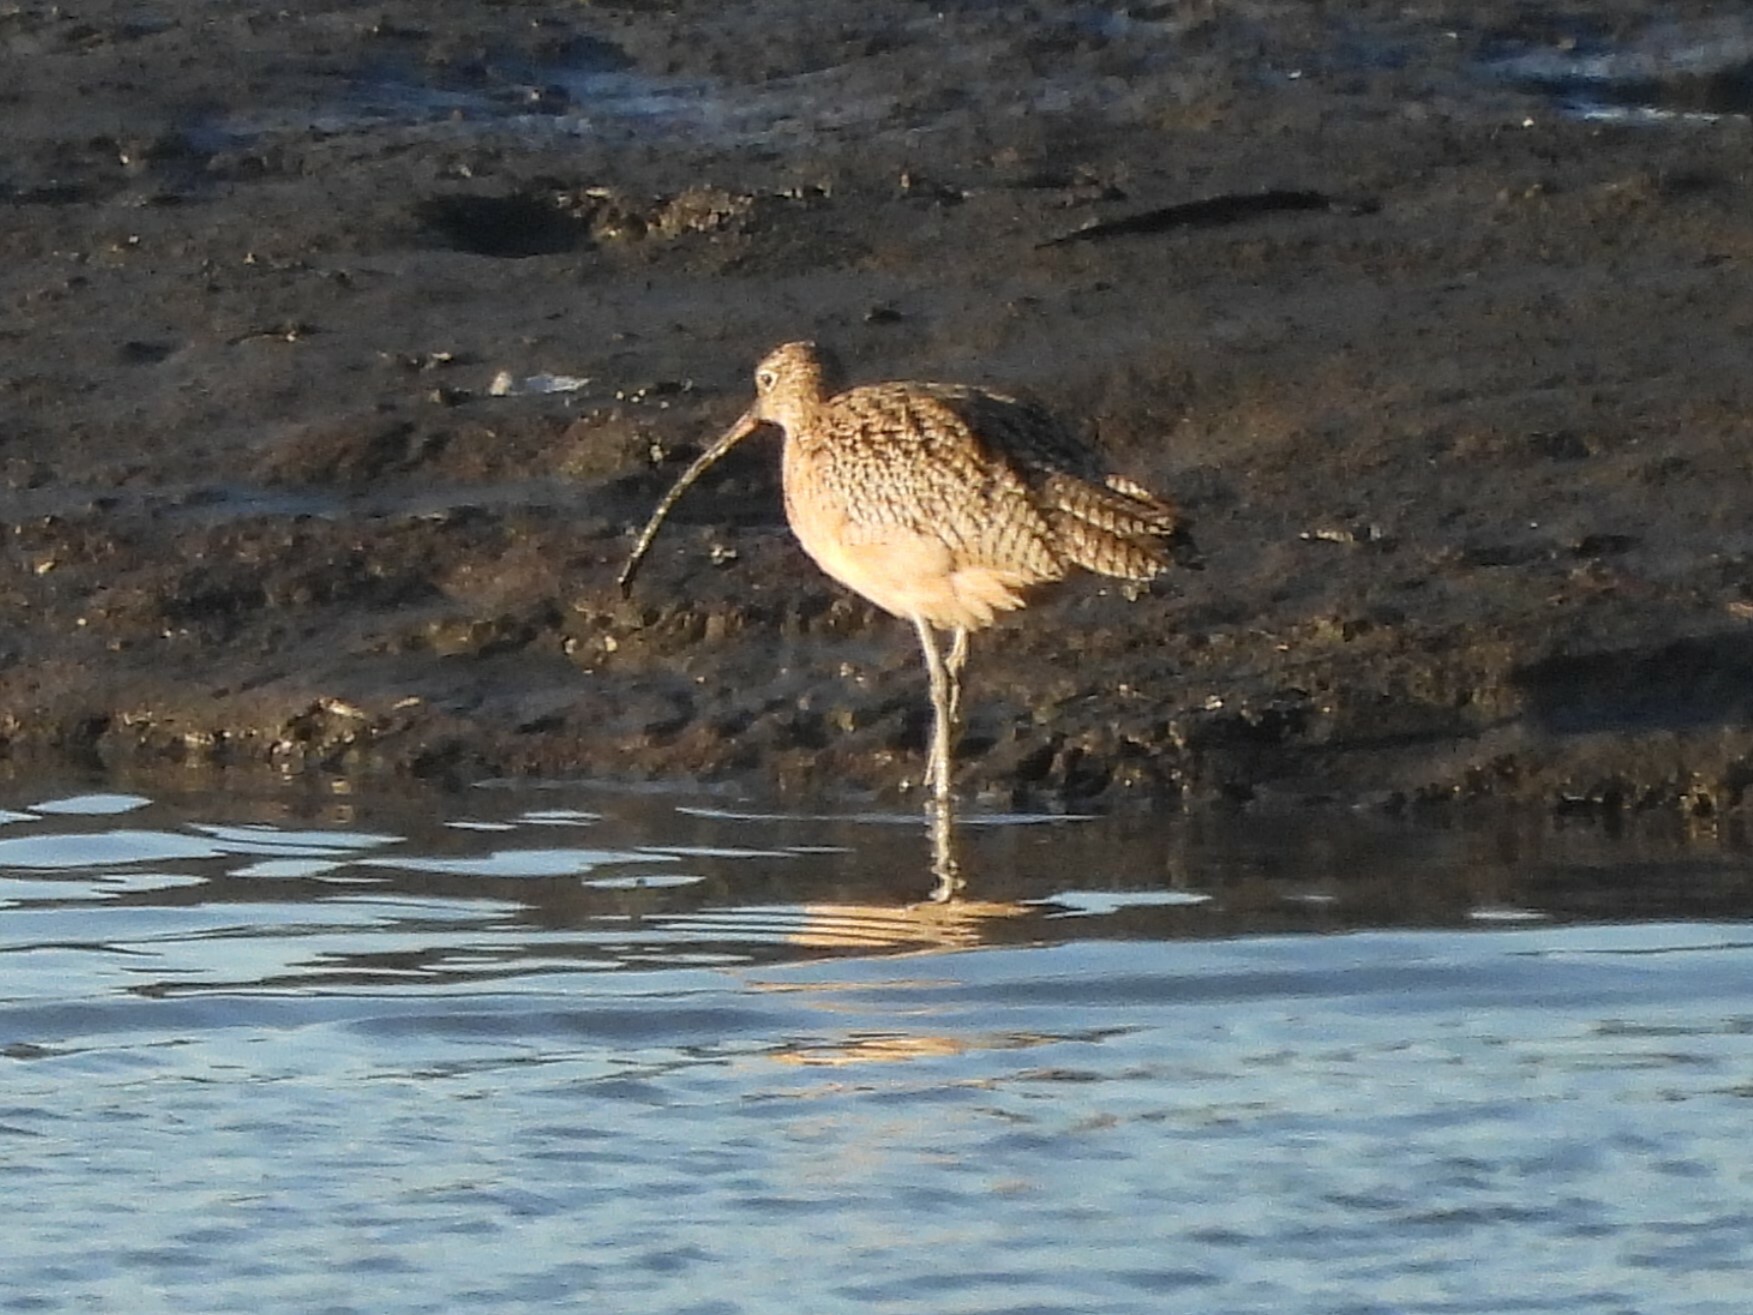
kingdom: Animalia
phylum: Chordata
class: Aves
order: Charadriiformes
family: Scolopacidae
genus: Numenius
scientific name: Numenius americanus
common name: Long-billed curlew
